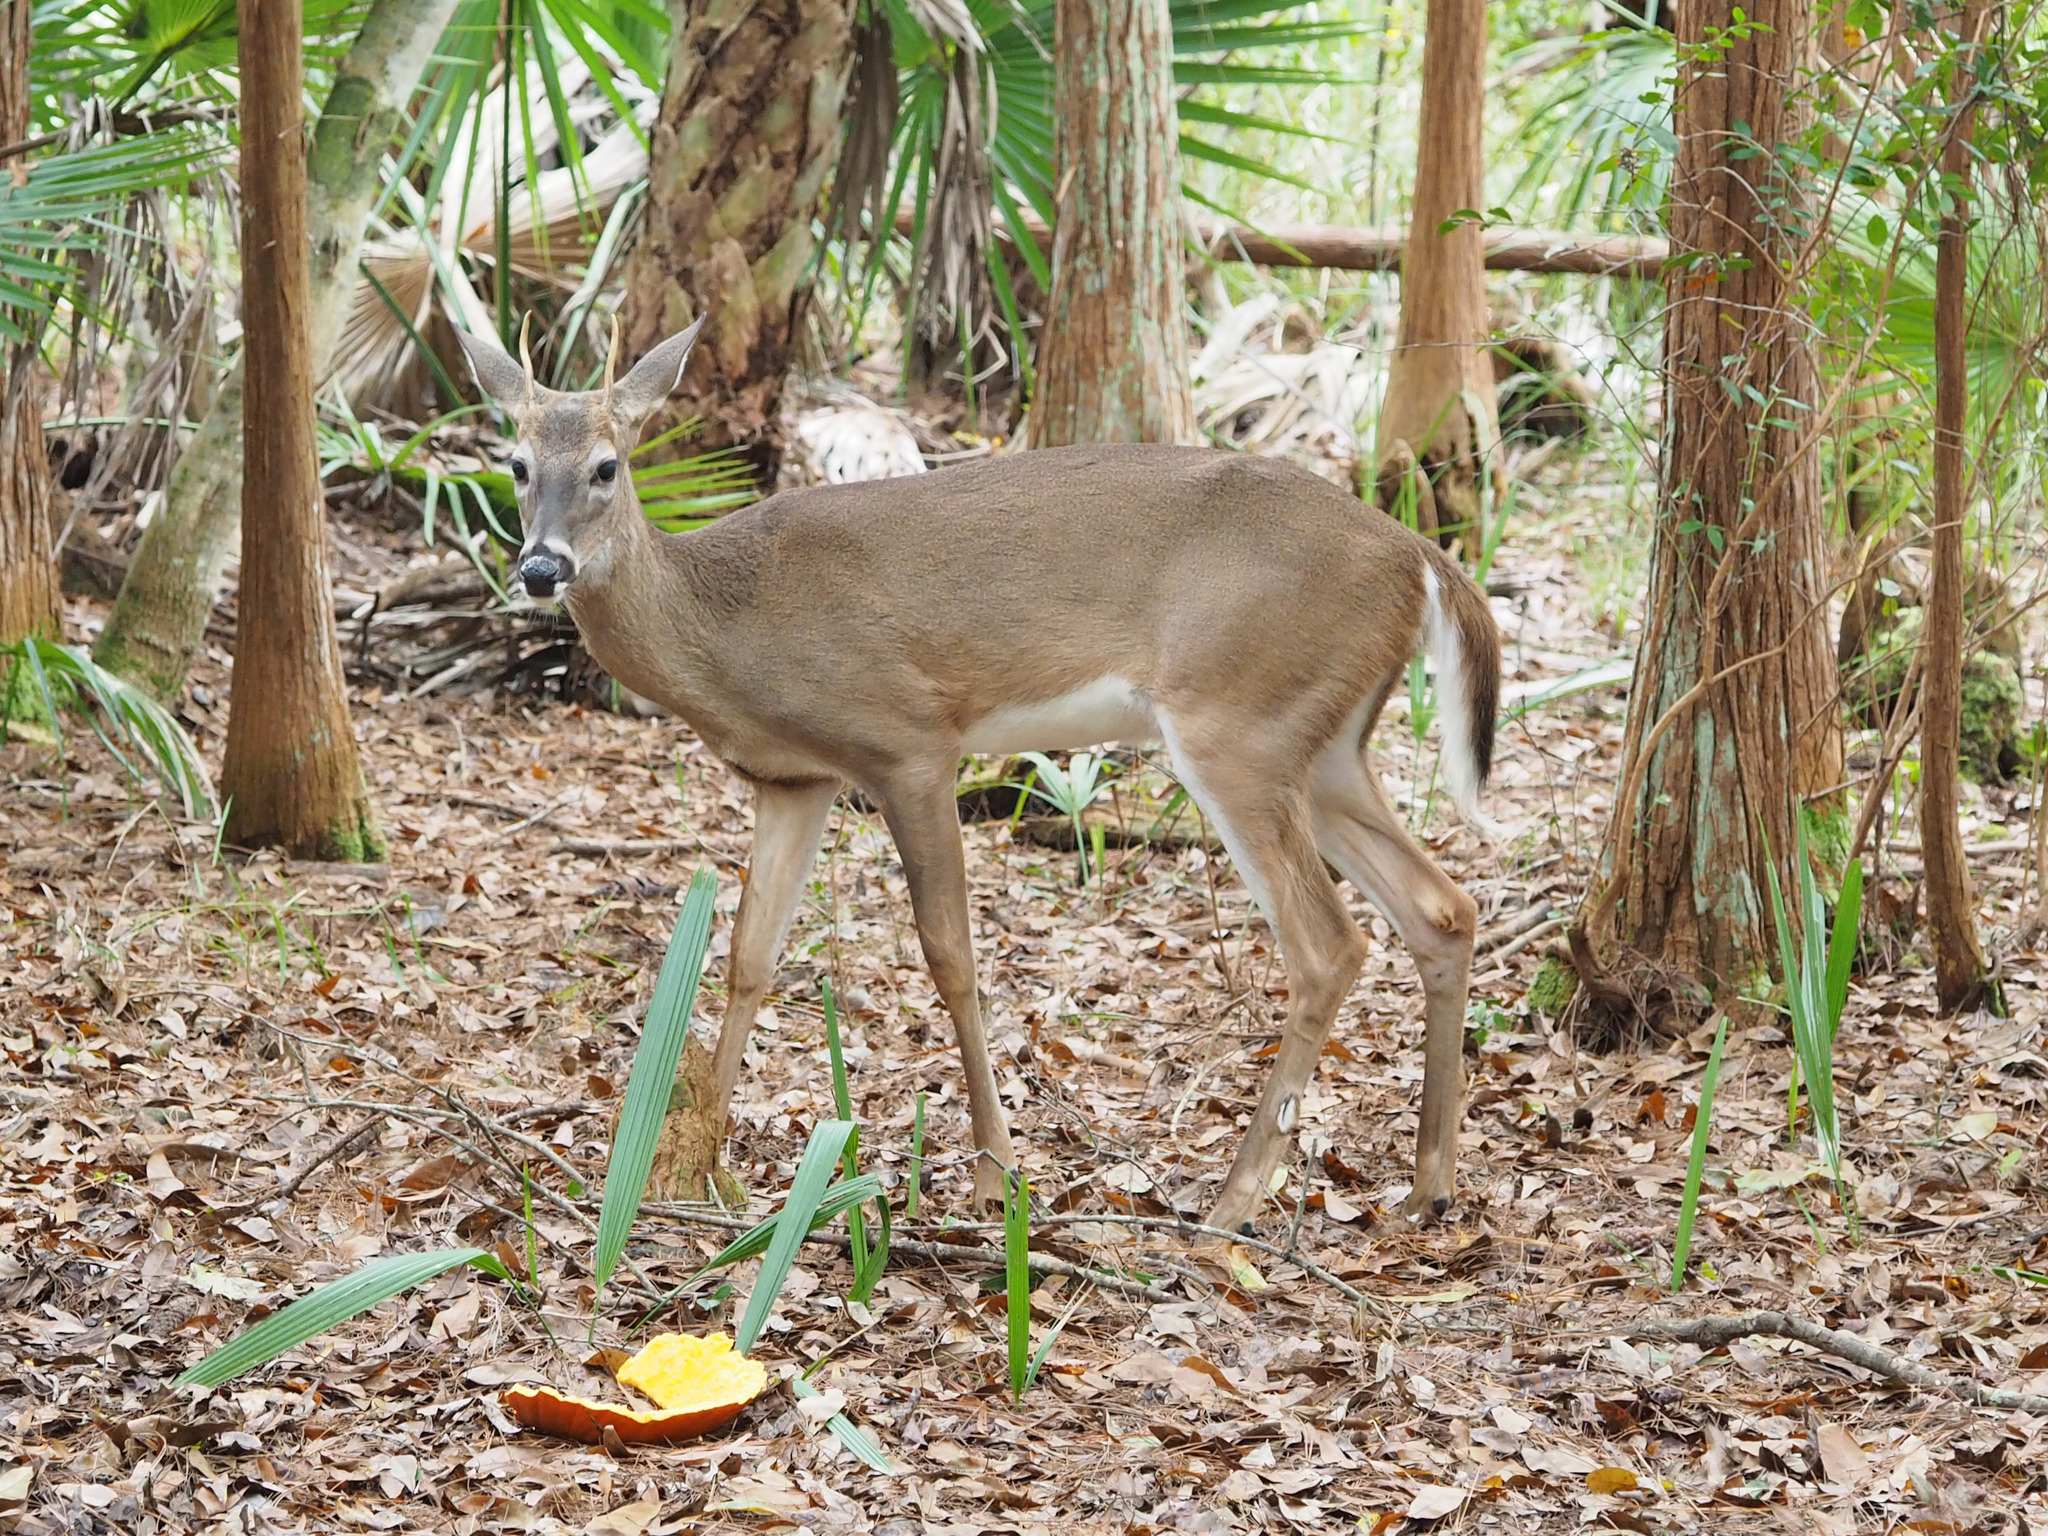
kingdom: Animalia
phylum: Chordata
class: Mammalia
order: Artiodactyla
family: Cervidae
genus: Odocoileus
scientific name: Odocoileus virginianus
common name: White-tailed deer
